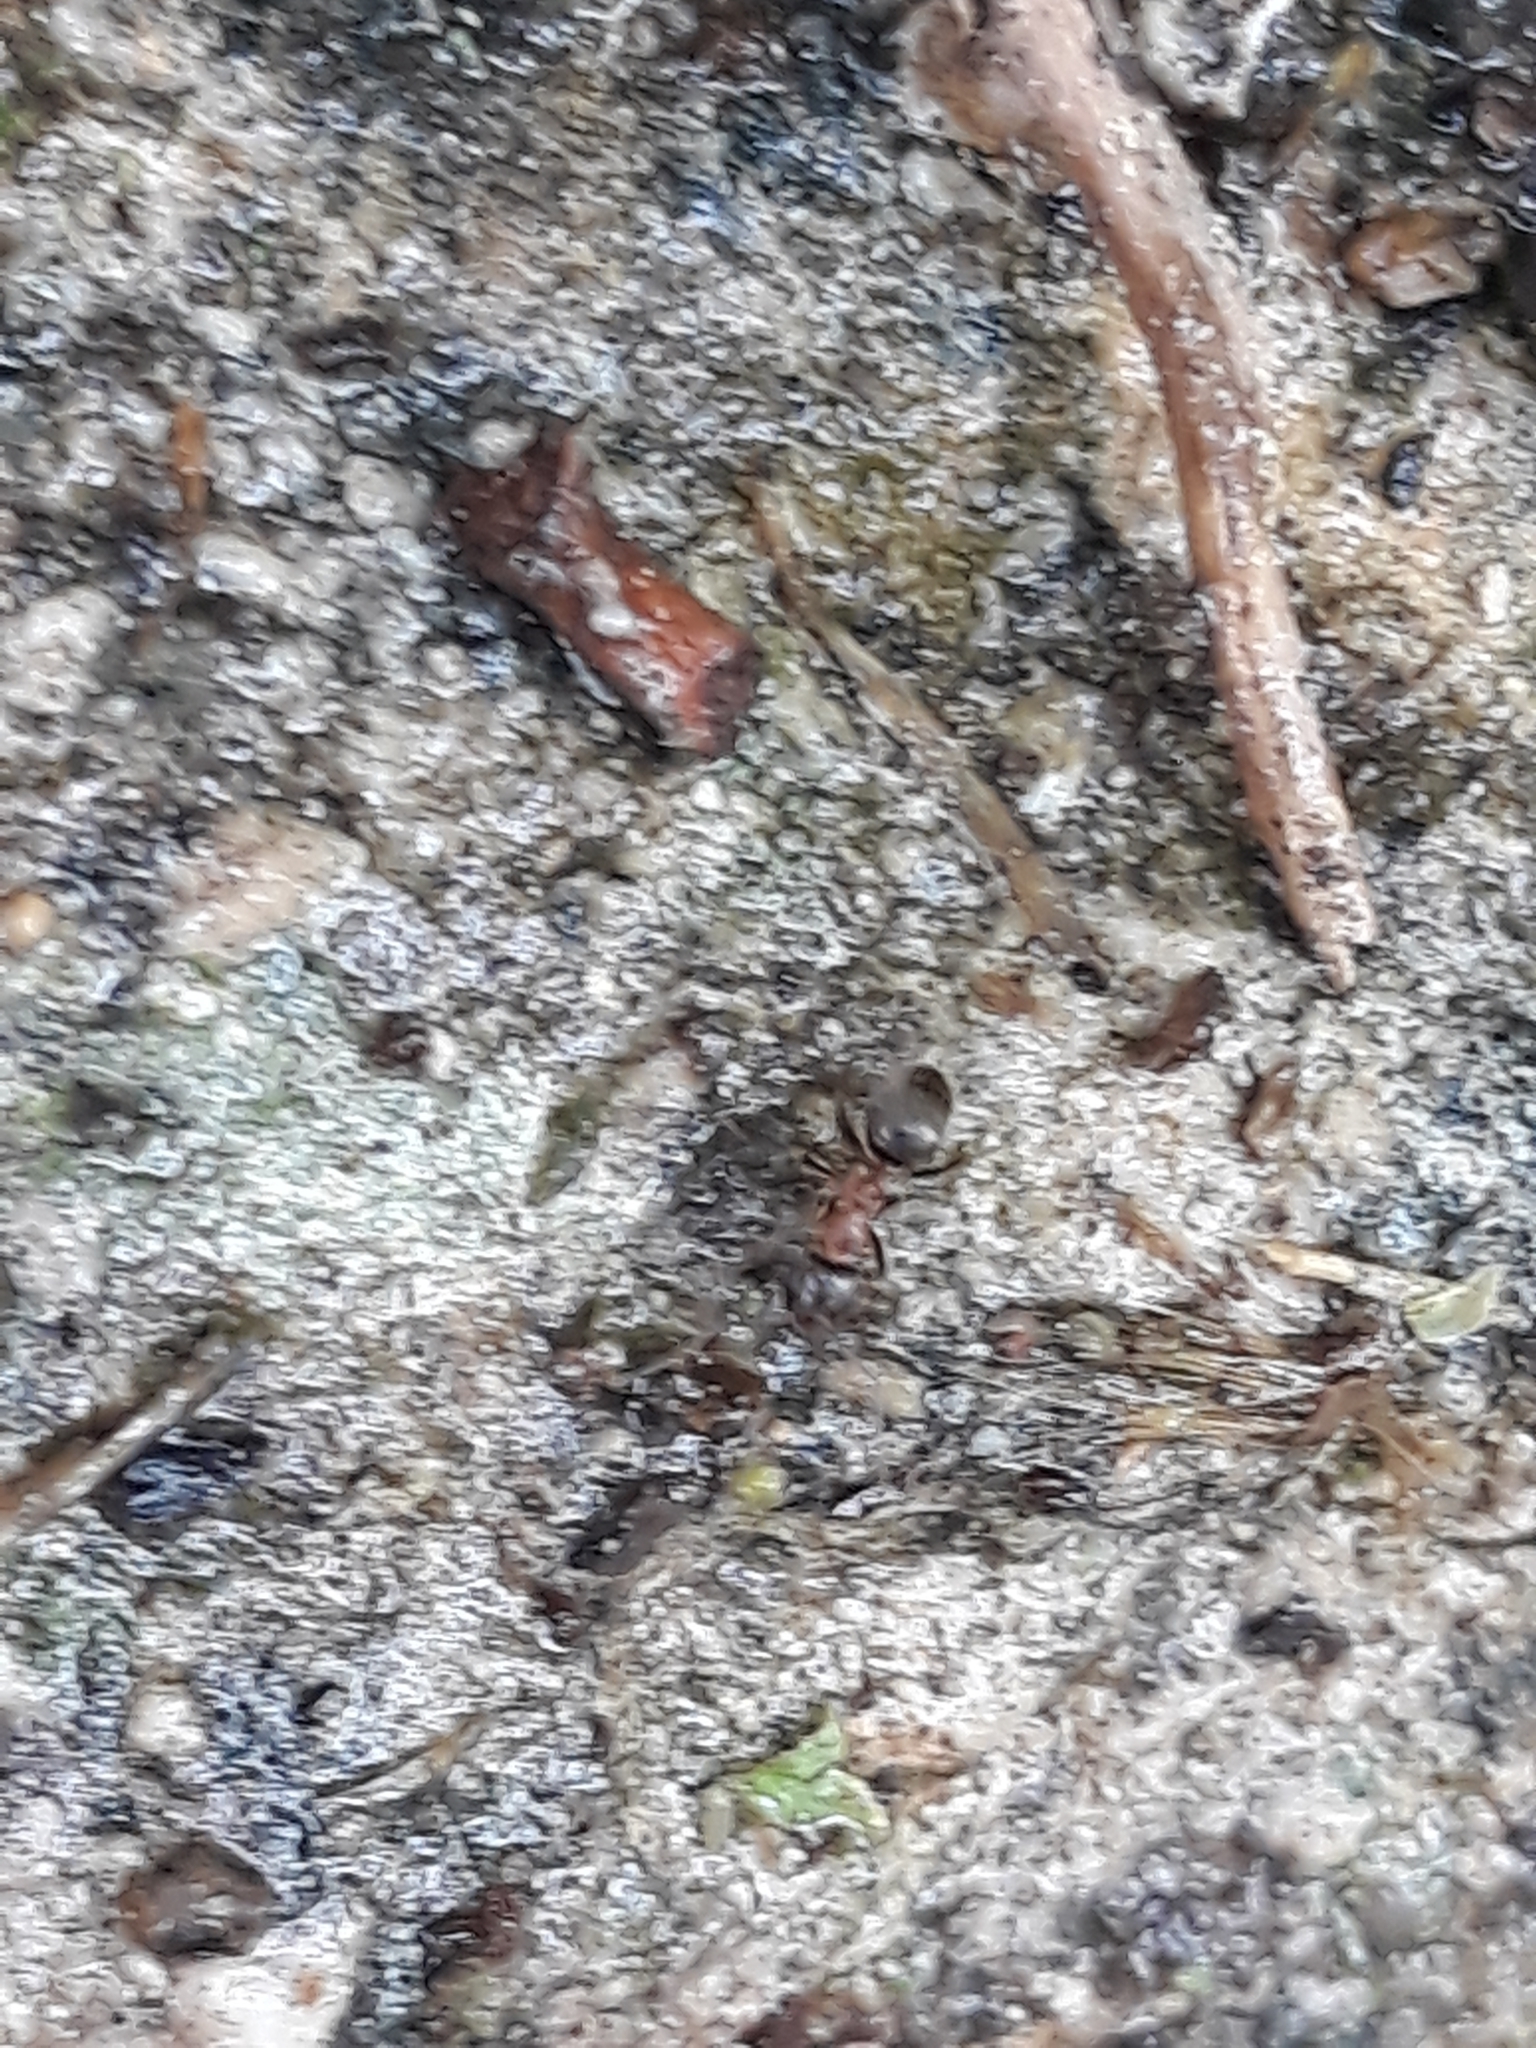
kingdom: Animalia
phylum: Arthropoda
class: Insecta
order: Hymenoptera
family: Formicidae
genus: Lasius
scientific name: Lasius emarginatus
